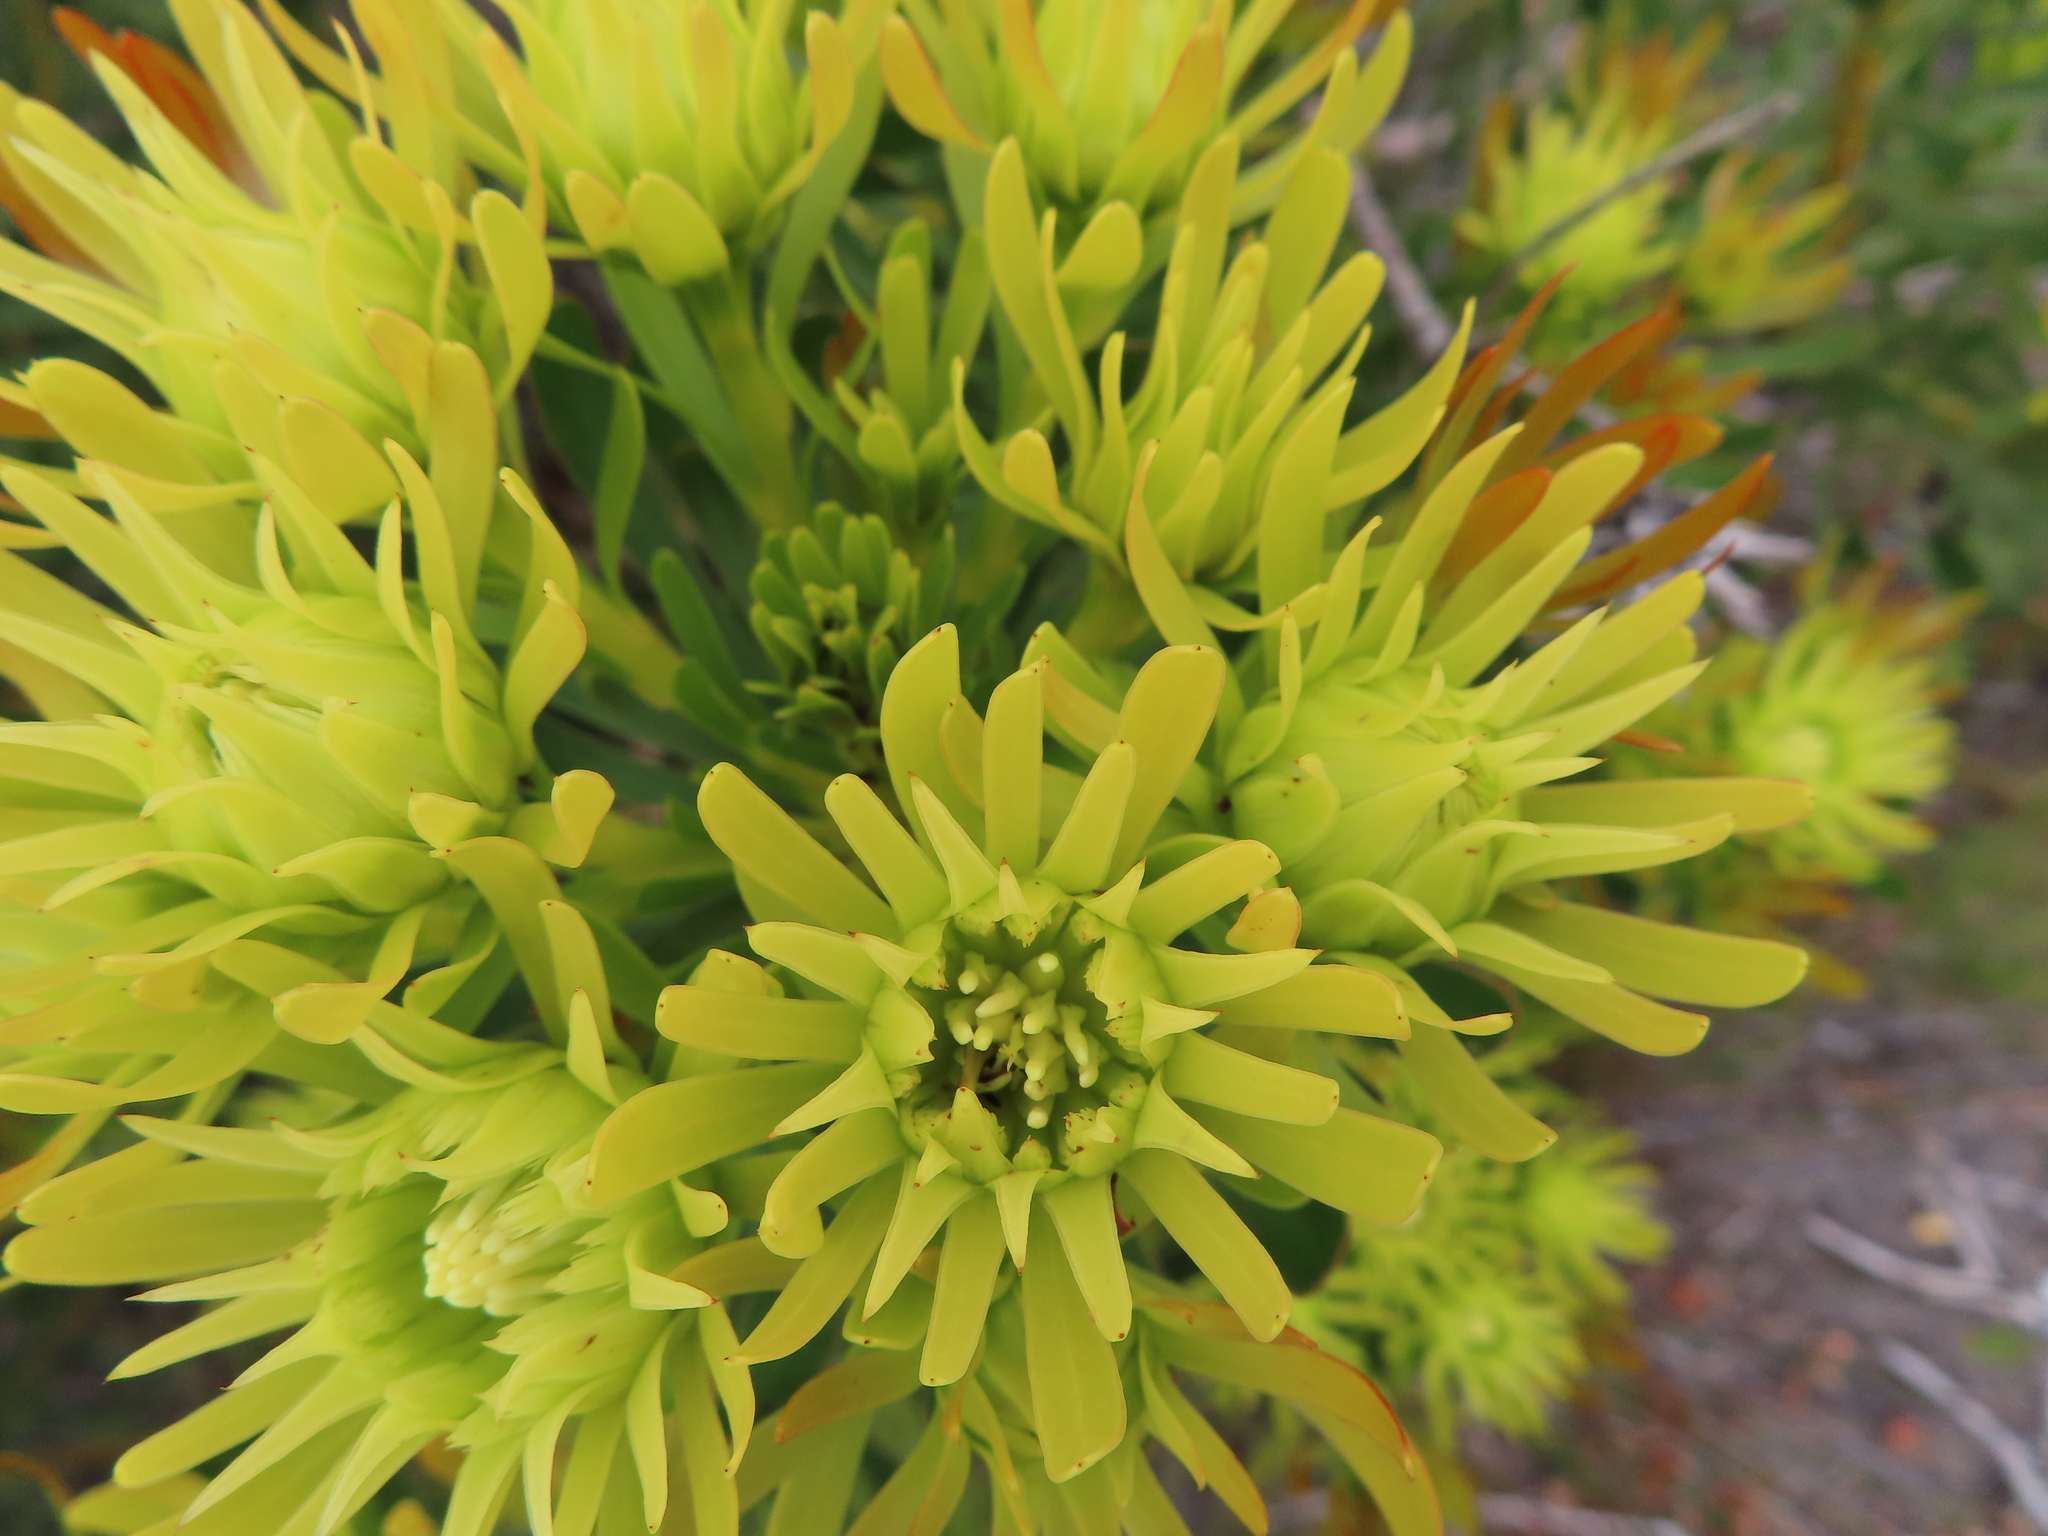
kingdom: Plantae
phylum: Tracheophyta
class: Magnoliopsida
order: Proteales
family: Proteaceae
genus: Aulax
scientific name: Aulax umbellata
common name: Broad-leaf featherbush
